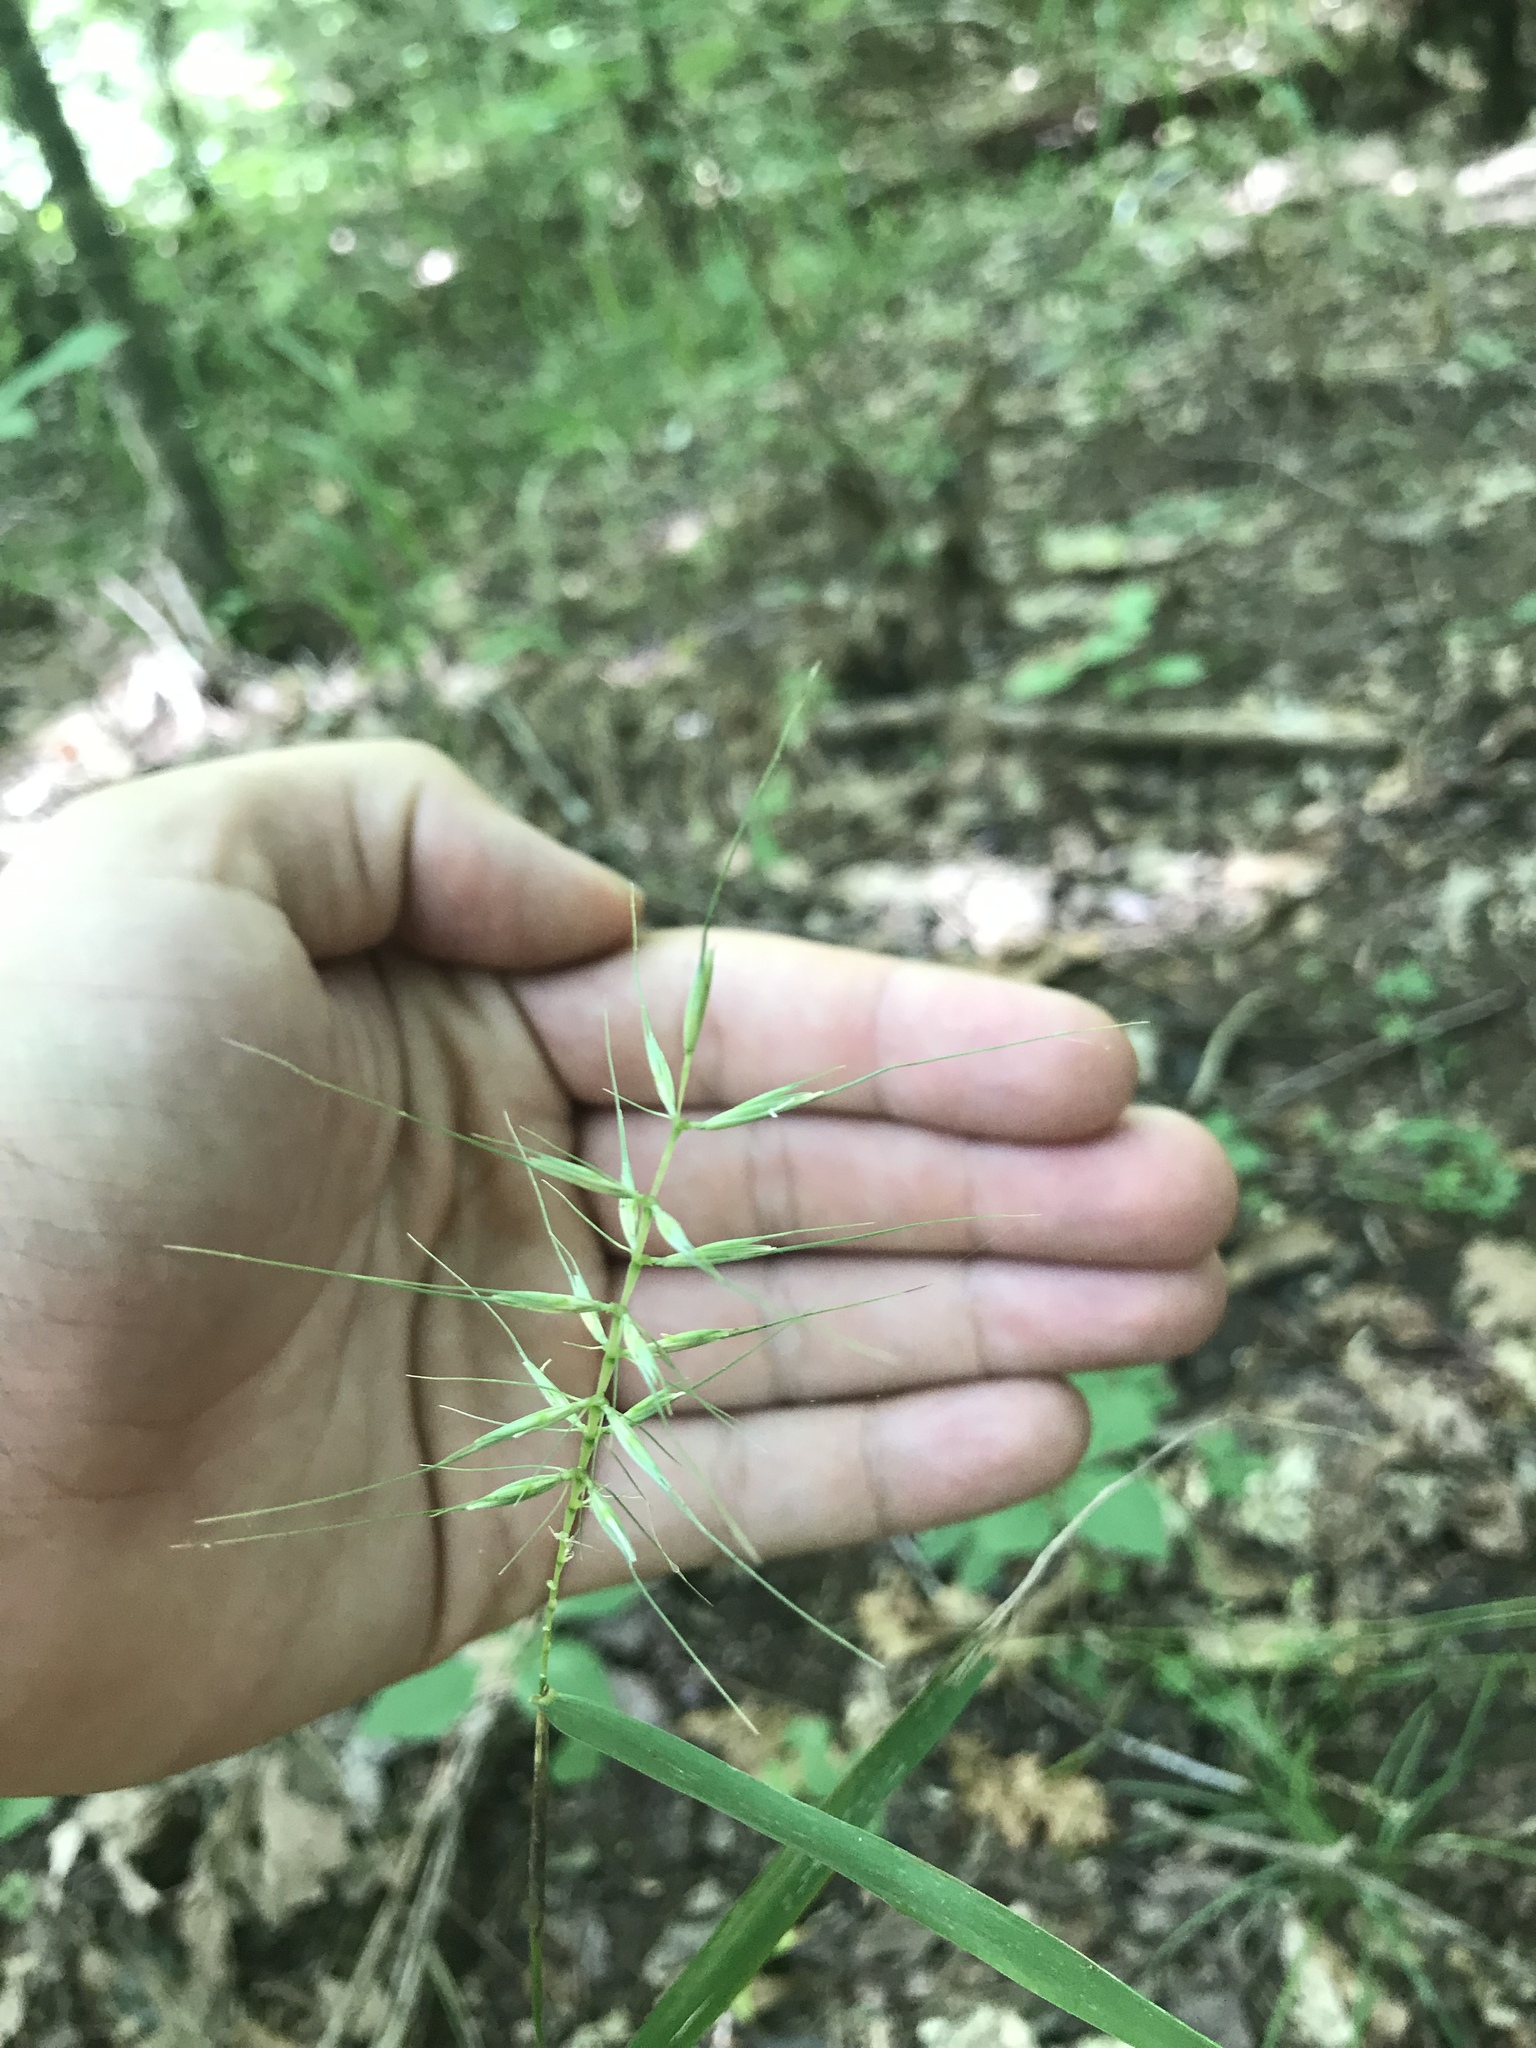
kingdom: Plantae
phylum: Tracheophyta
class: Liliopsida
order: Poales
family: Poaceae
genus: Elymus
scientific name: Elymus hystrix
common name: Bottlebrush grass
